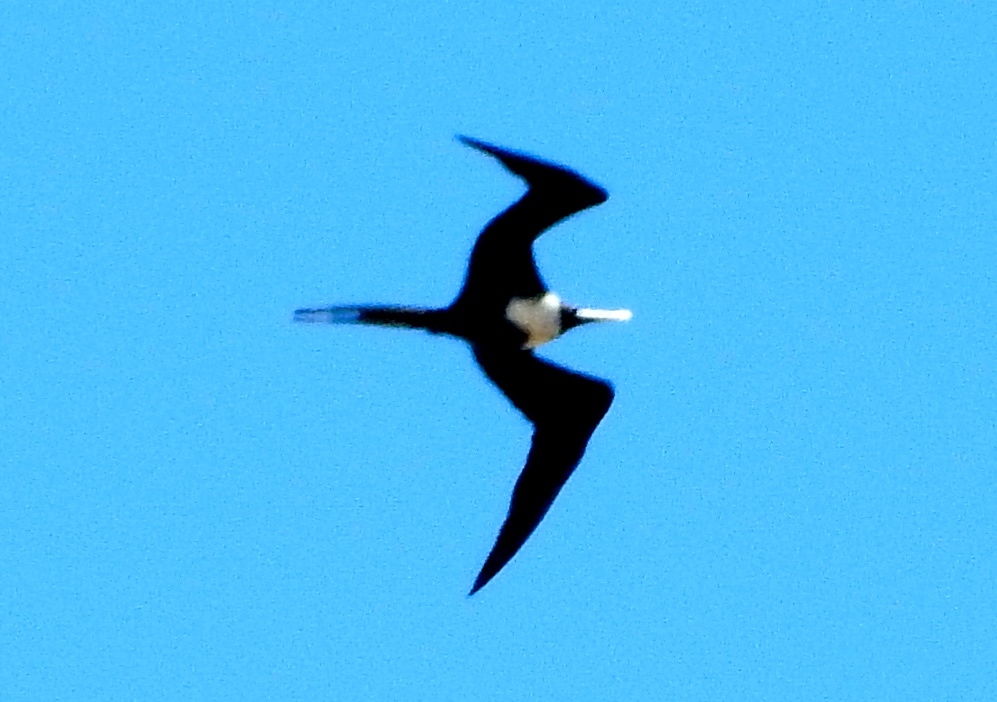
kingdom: Animalia
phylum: Chordata
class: Aves
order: Suliformes
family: Fregatidae
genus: Fregata
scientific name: Fregata magnificens
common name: Magnificent frigatebird
